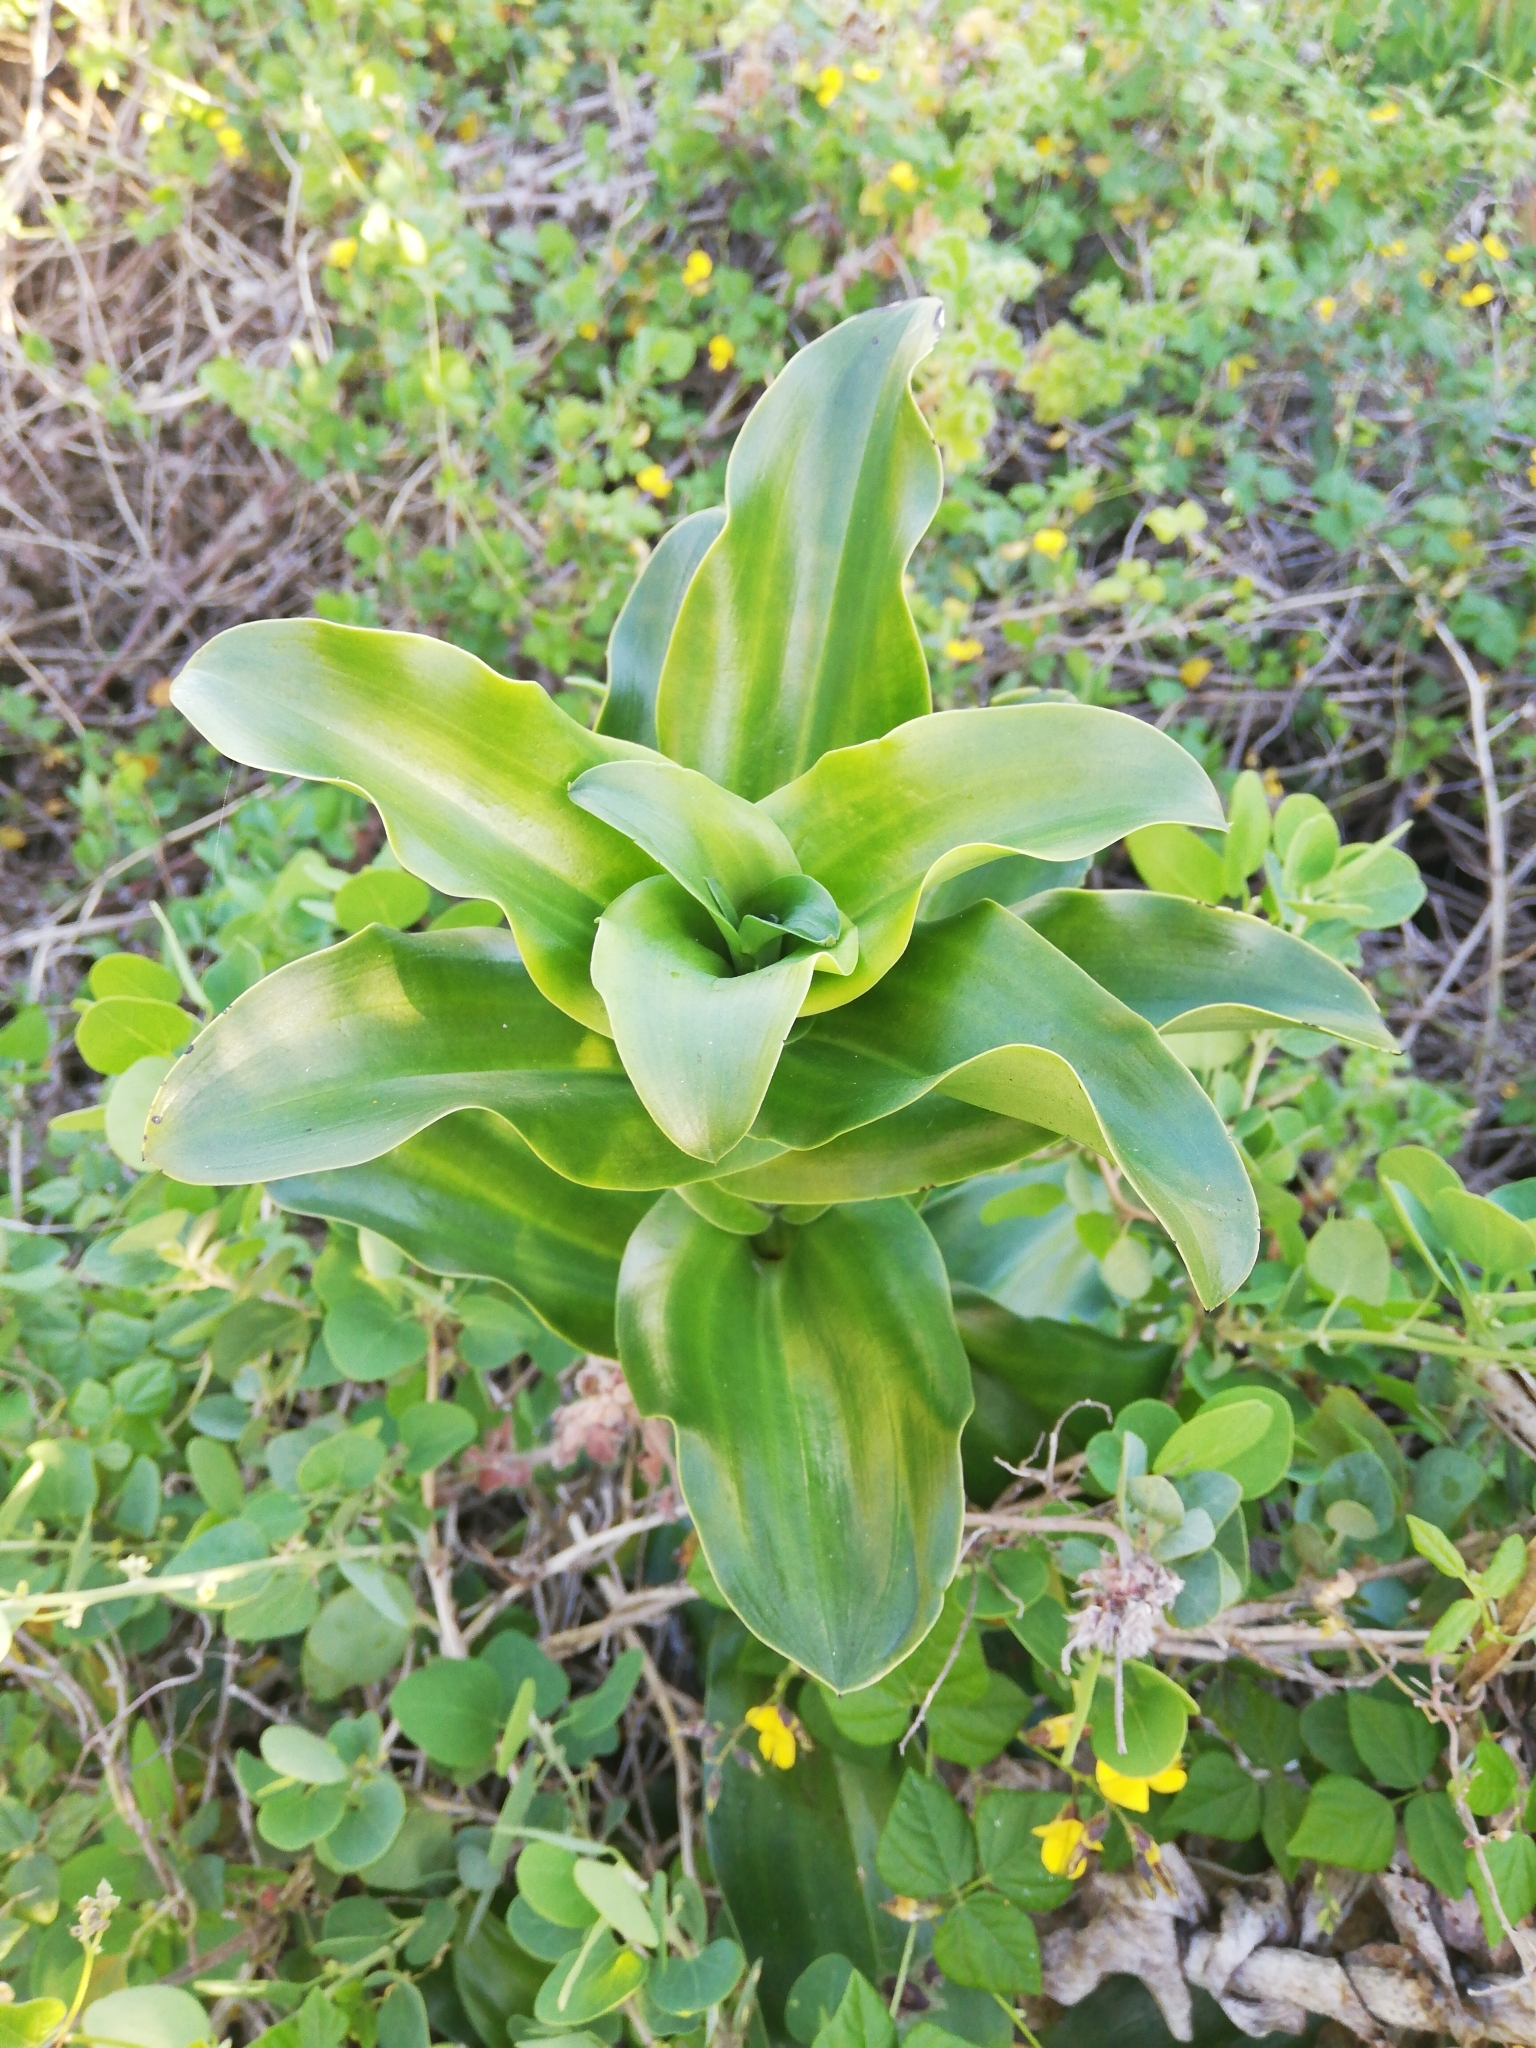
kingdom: Plantae
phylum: Tracheophyta
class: Liliopsida
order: Asparagales
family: Orchidaceae
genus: Bonatea
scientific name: Bonatea speciosa
